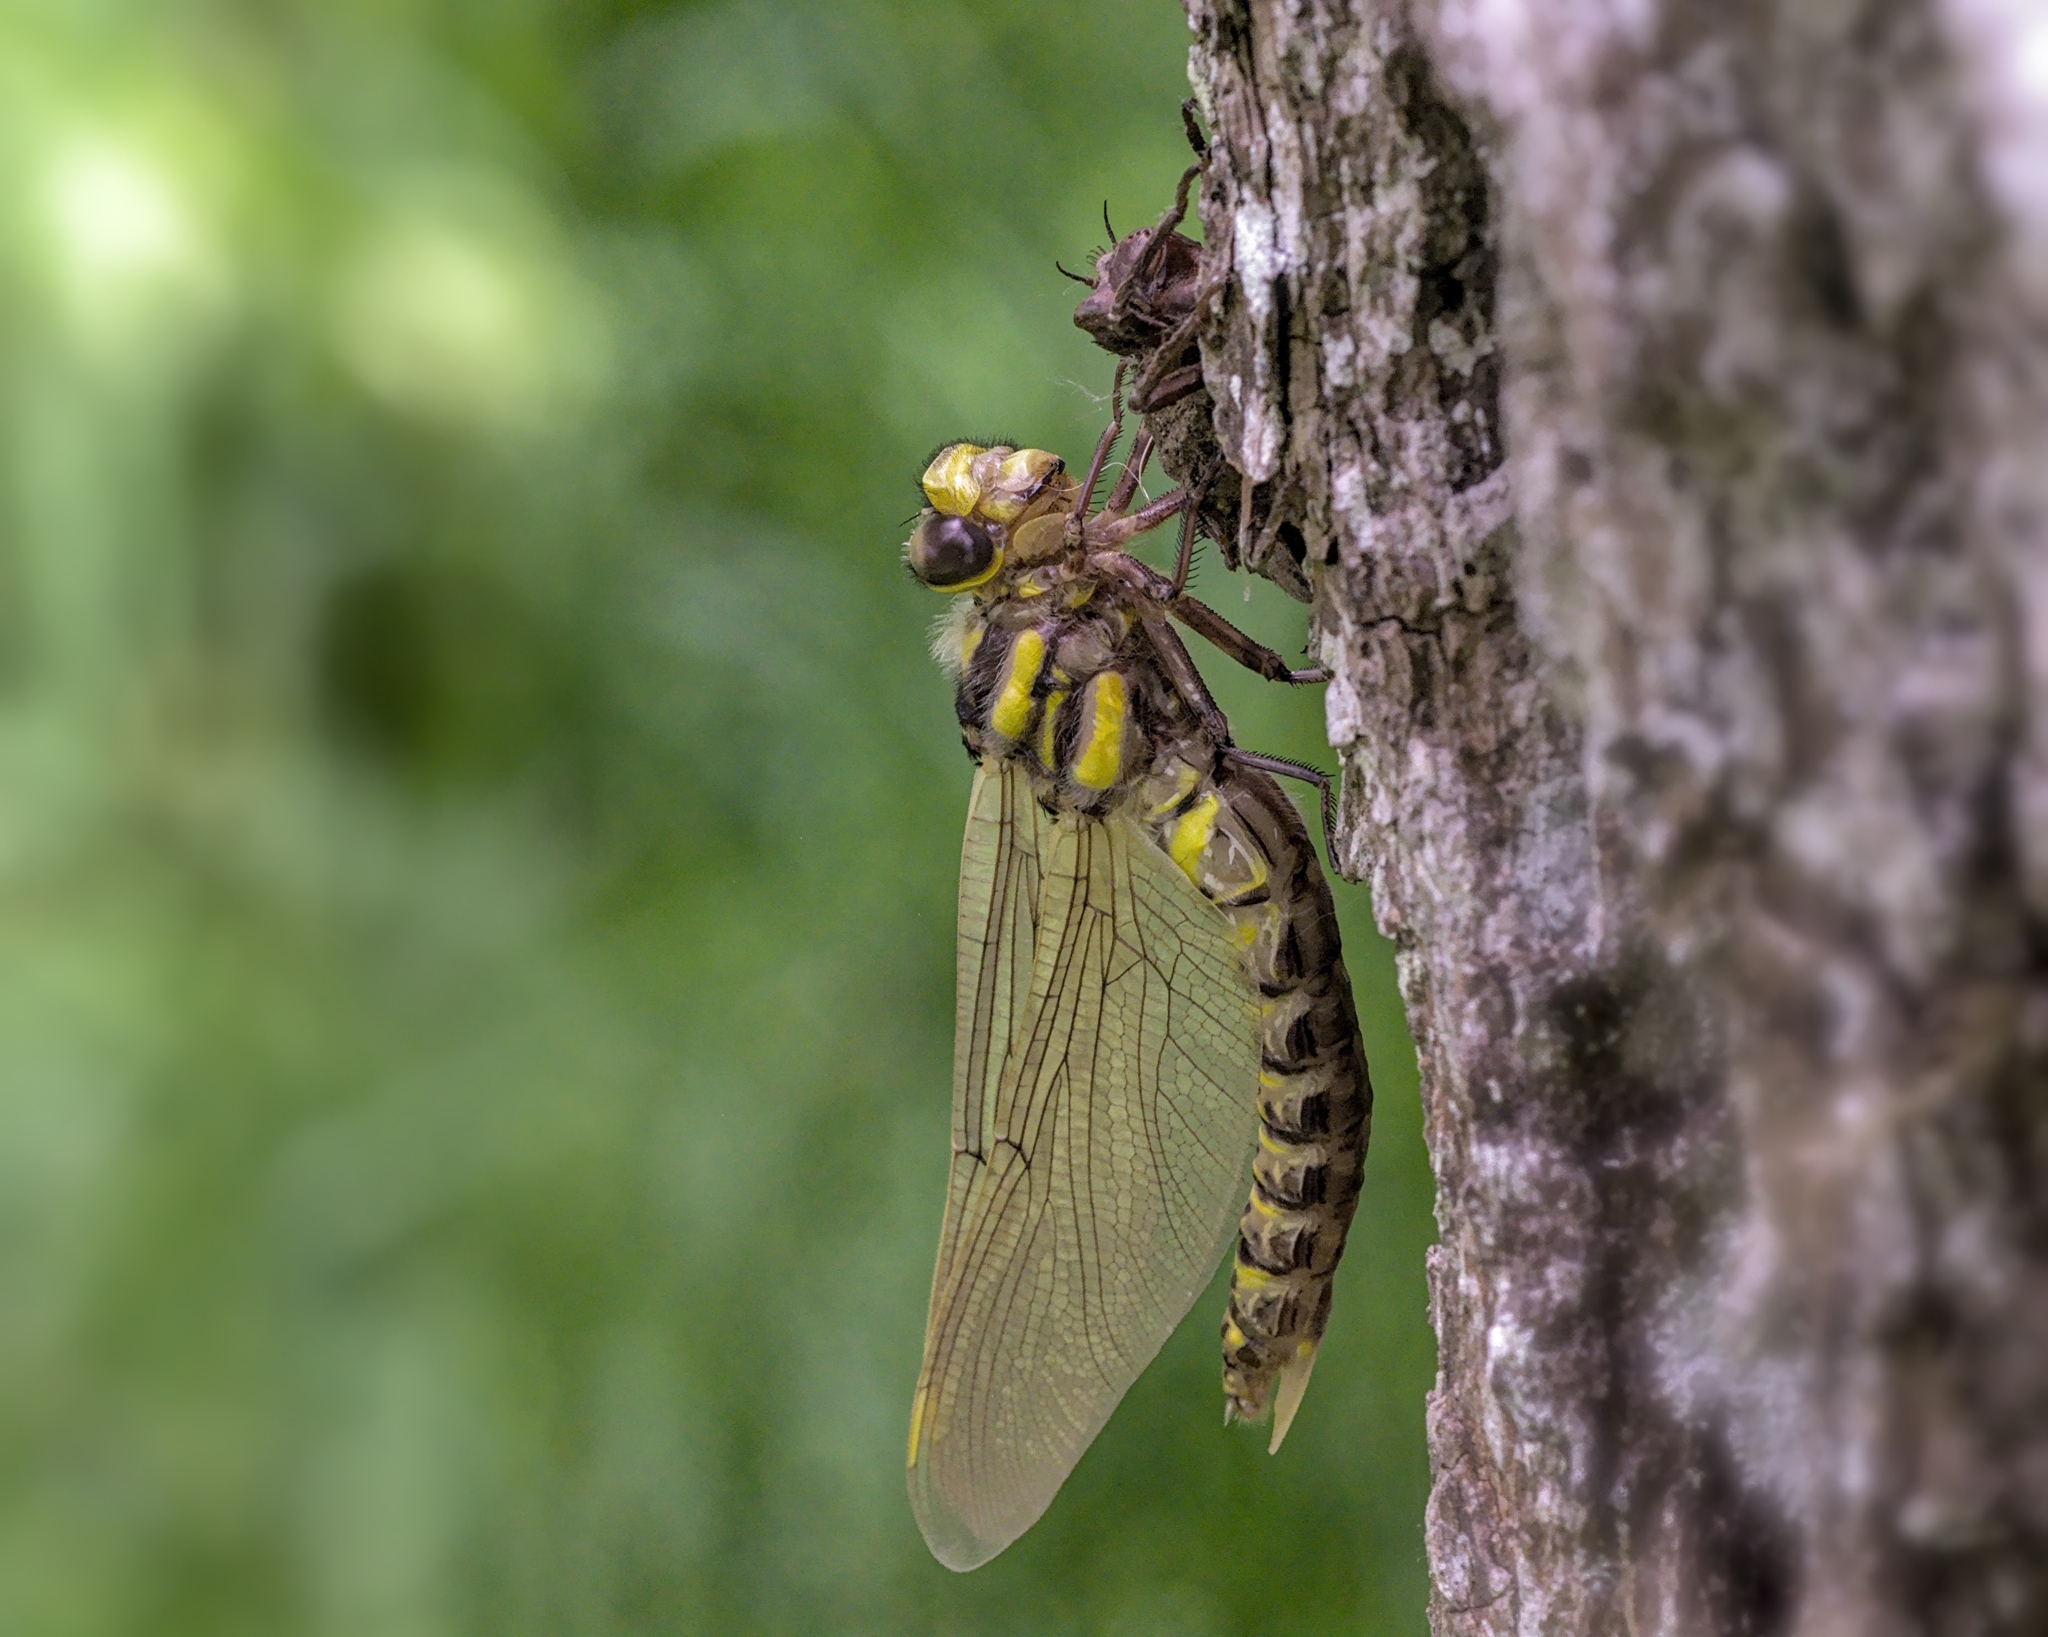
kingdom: Animalia
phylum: Arthropoda
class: Insecta
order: Odonata
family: Cordulegastridae
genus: Cordulegaster
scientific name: Cordulegaster boltonii
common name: Golden-ringed dragonfly
